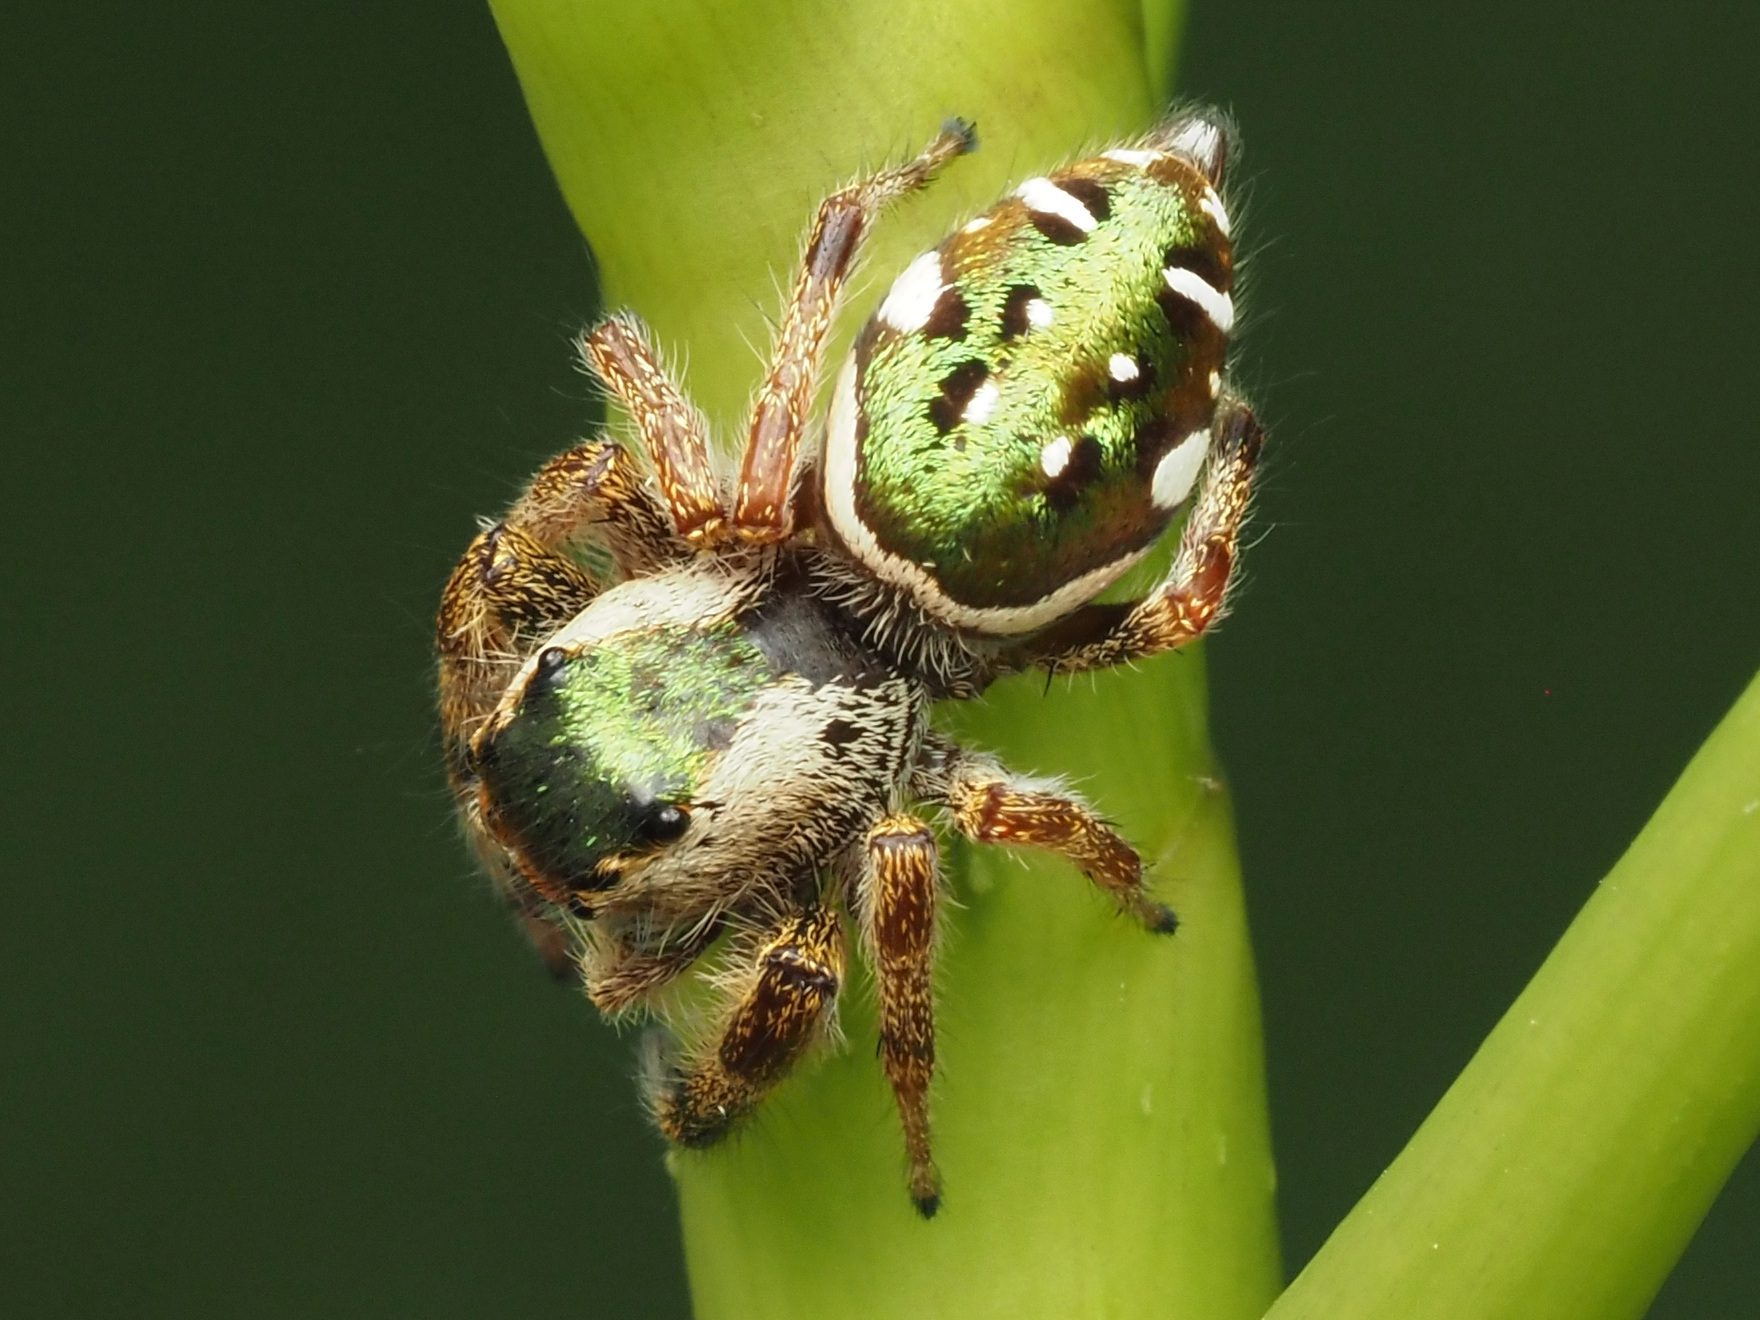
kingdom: Animalia
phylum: Arthropoda
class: Arachnida
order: Araneae
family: Salticidae
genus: Paraphidippus
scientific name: Paraphidippus aurantius
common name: Jumping spiders
